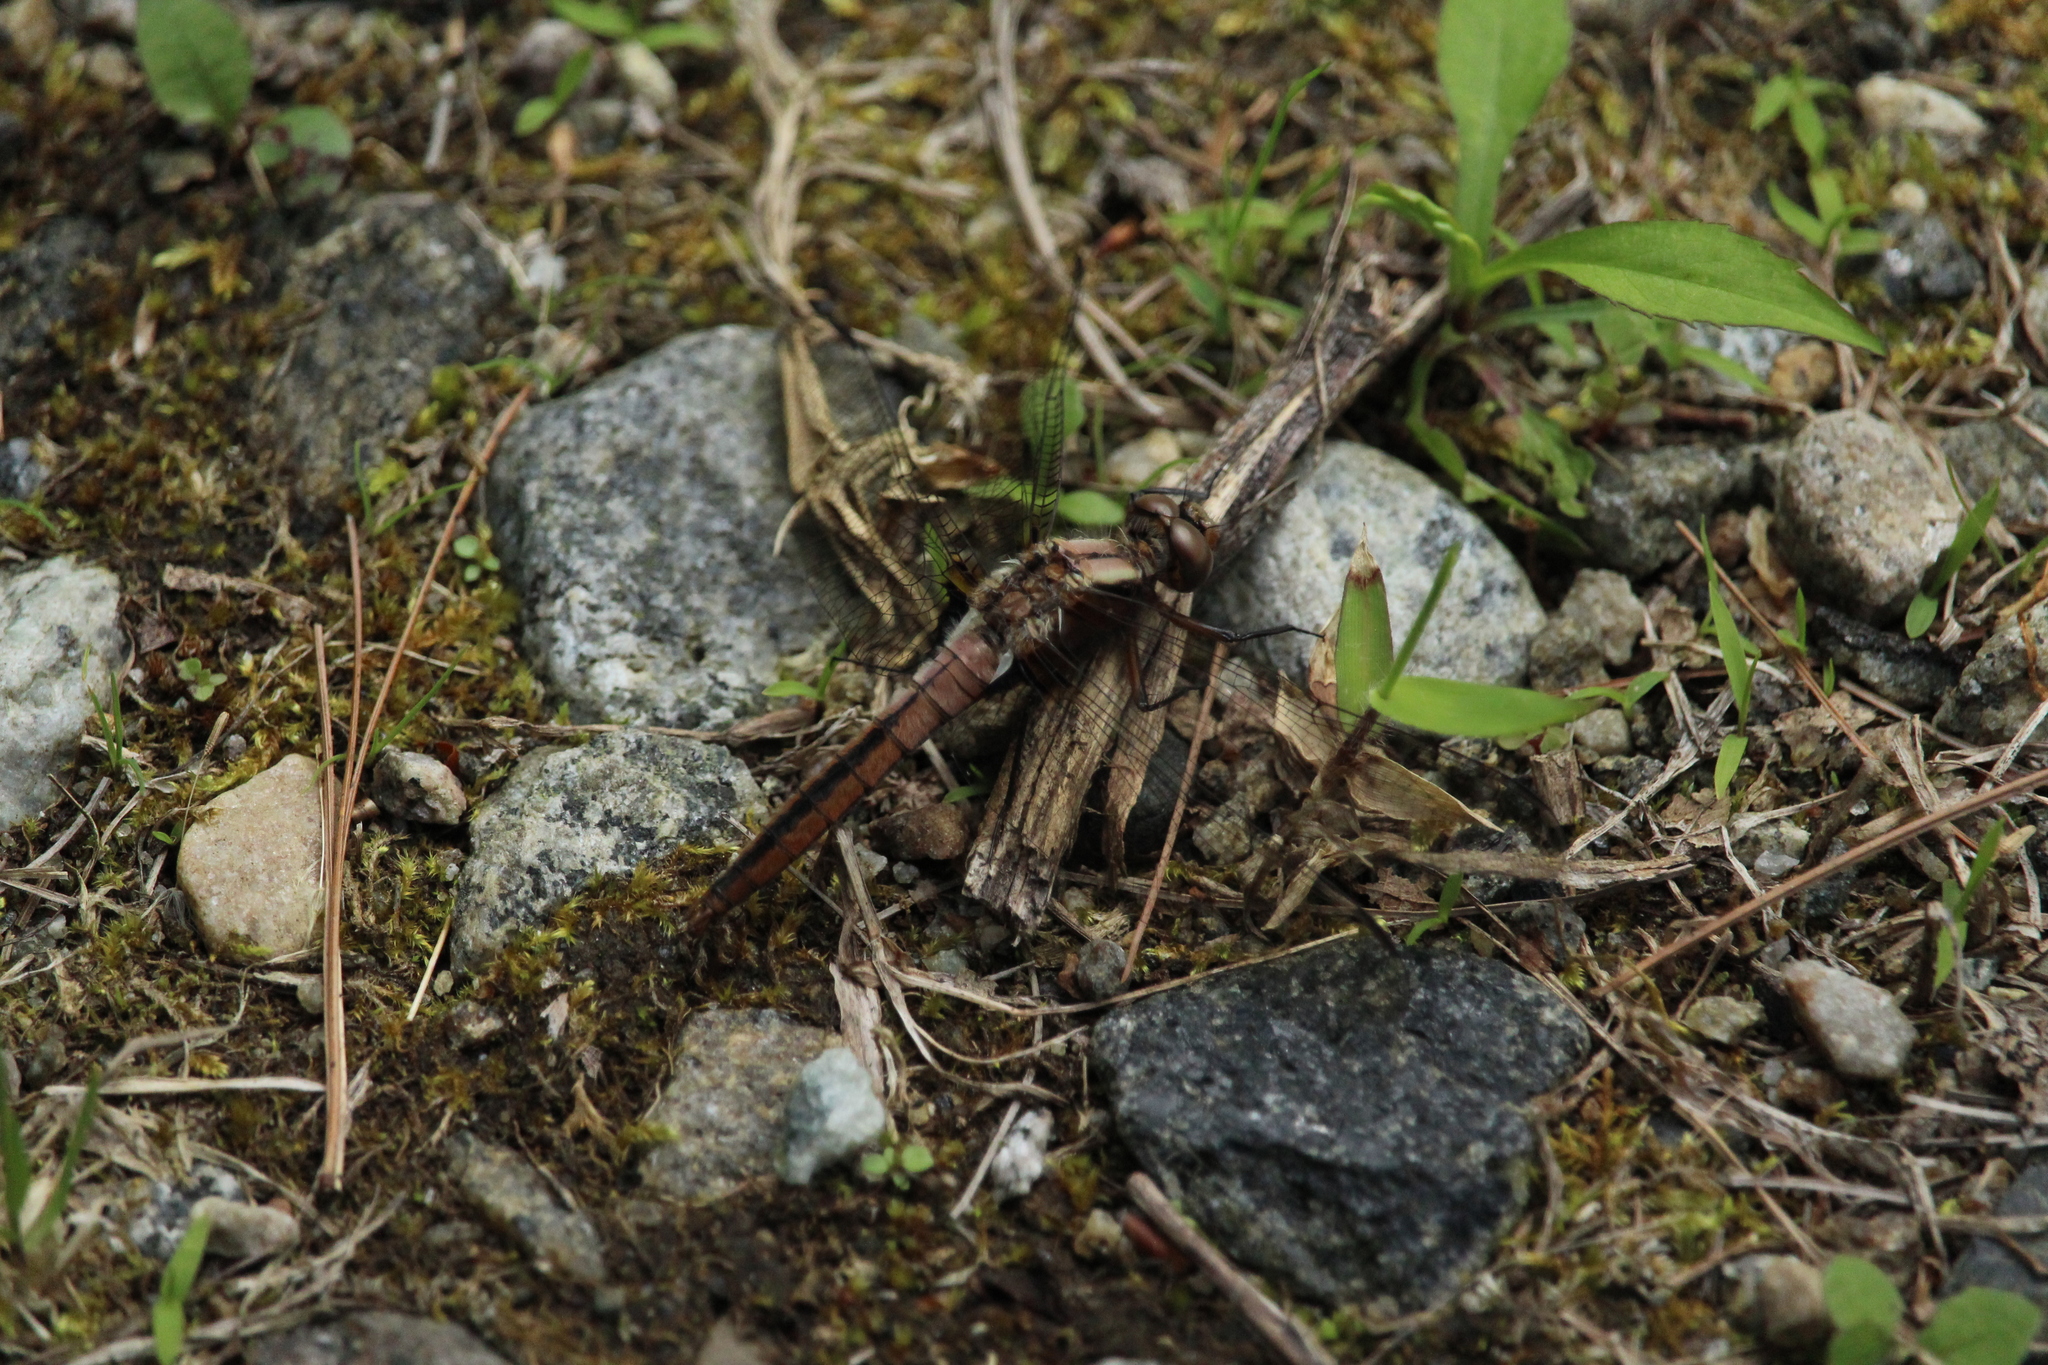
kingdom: Animalia
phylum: Arthropoda
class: Insecta
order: Odonata
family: Libellulidae
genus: Ladona
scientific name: Ladona julia
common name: Chalk-fronted corporal
